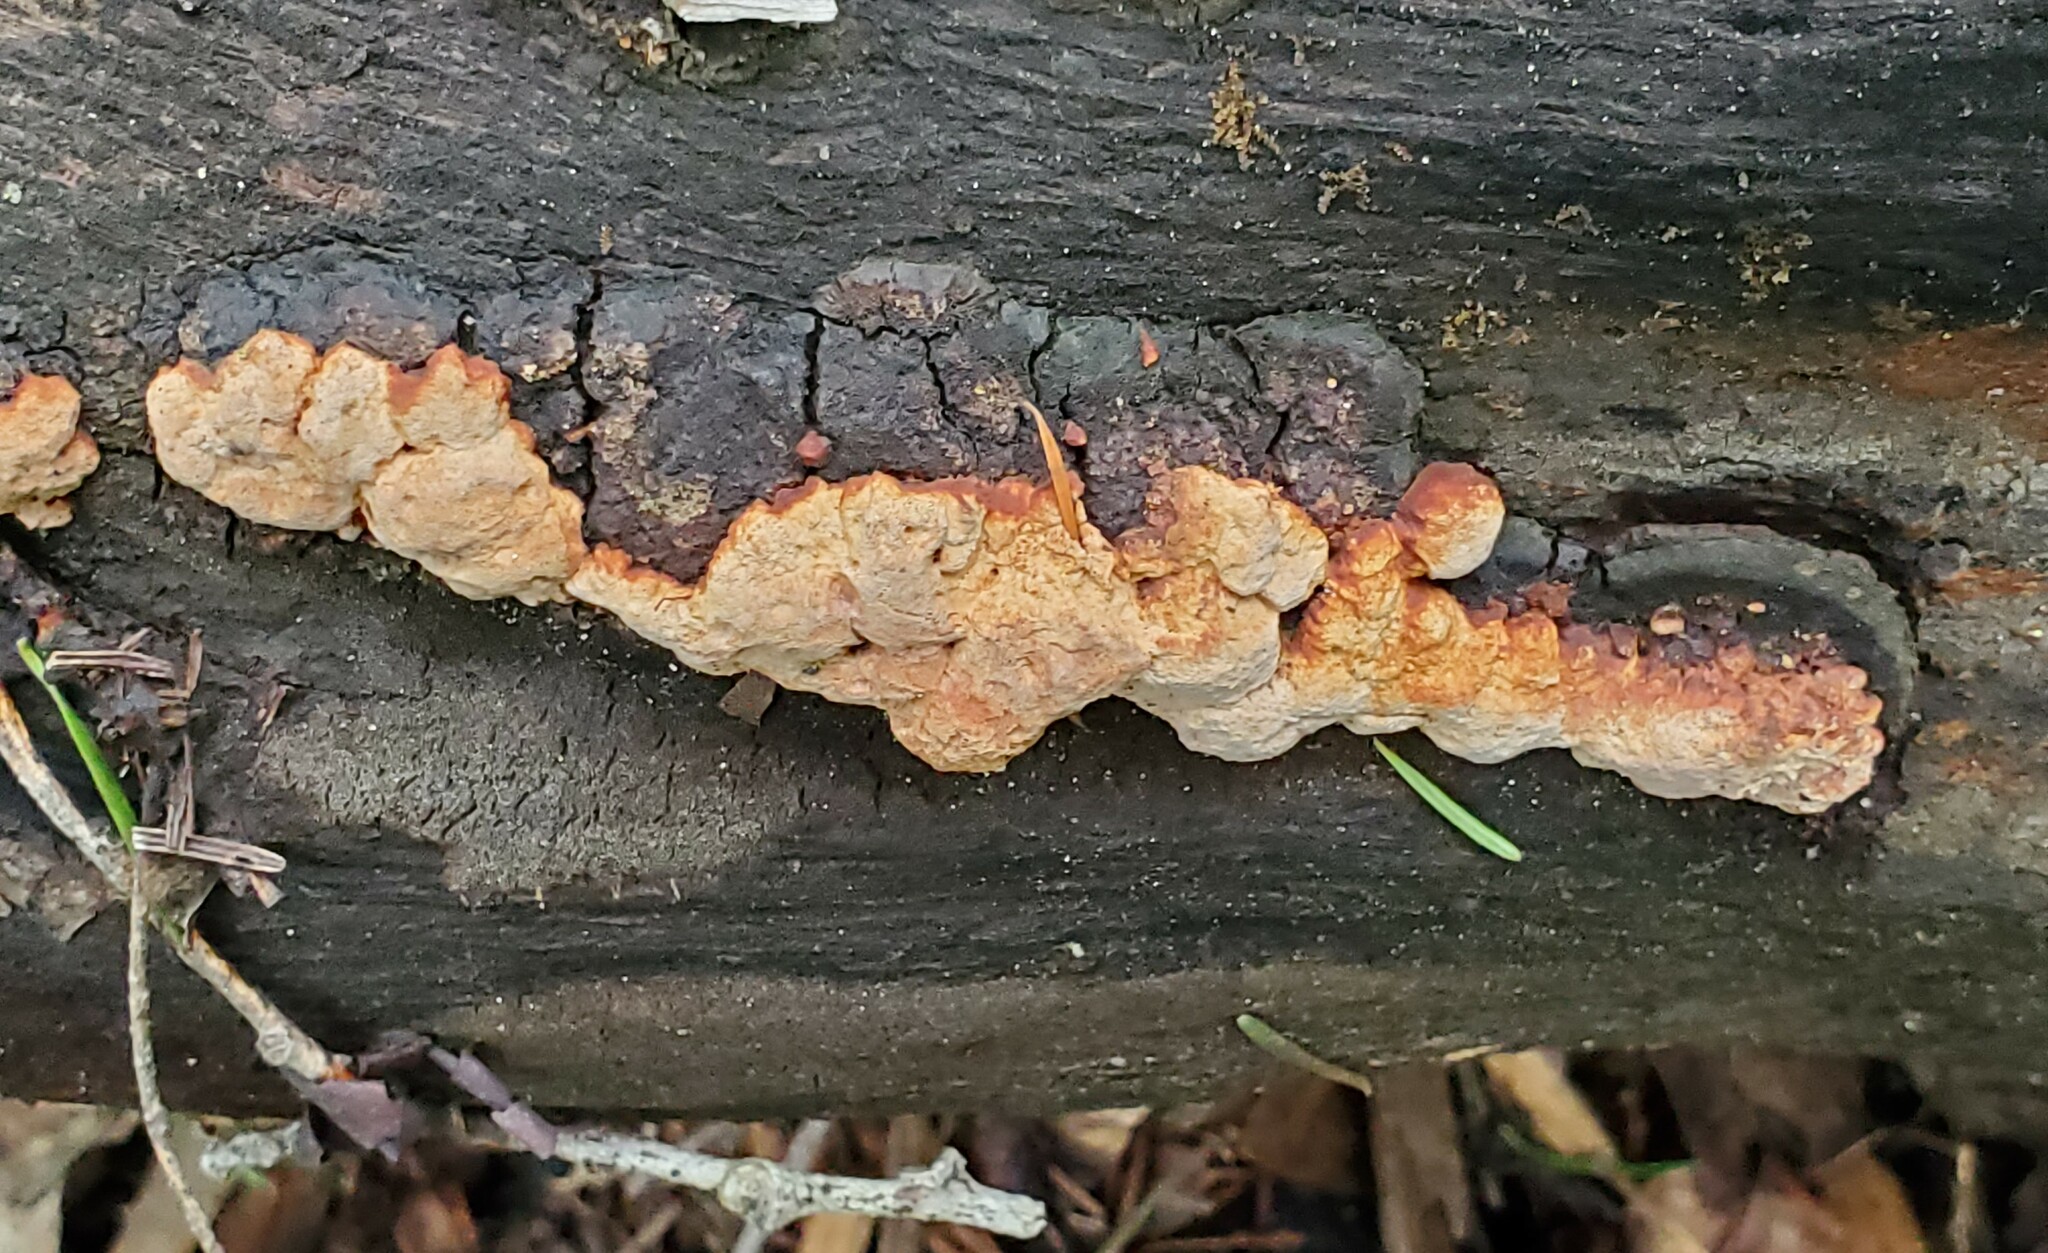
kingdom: Fungi
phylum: Basidiomycota
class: Agaricomycetes
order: Hymenochaetales
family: Hymenochaetaceae
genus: Phellinus
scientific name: Phellinus gilvus
